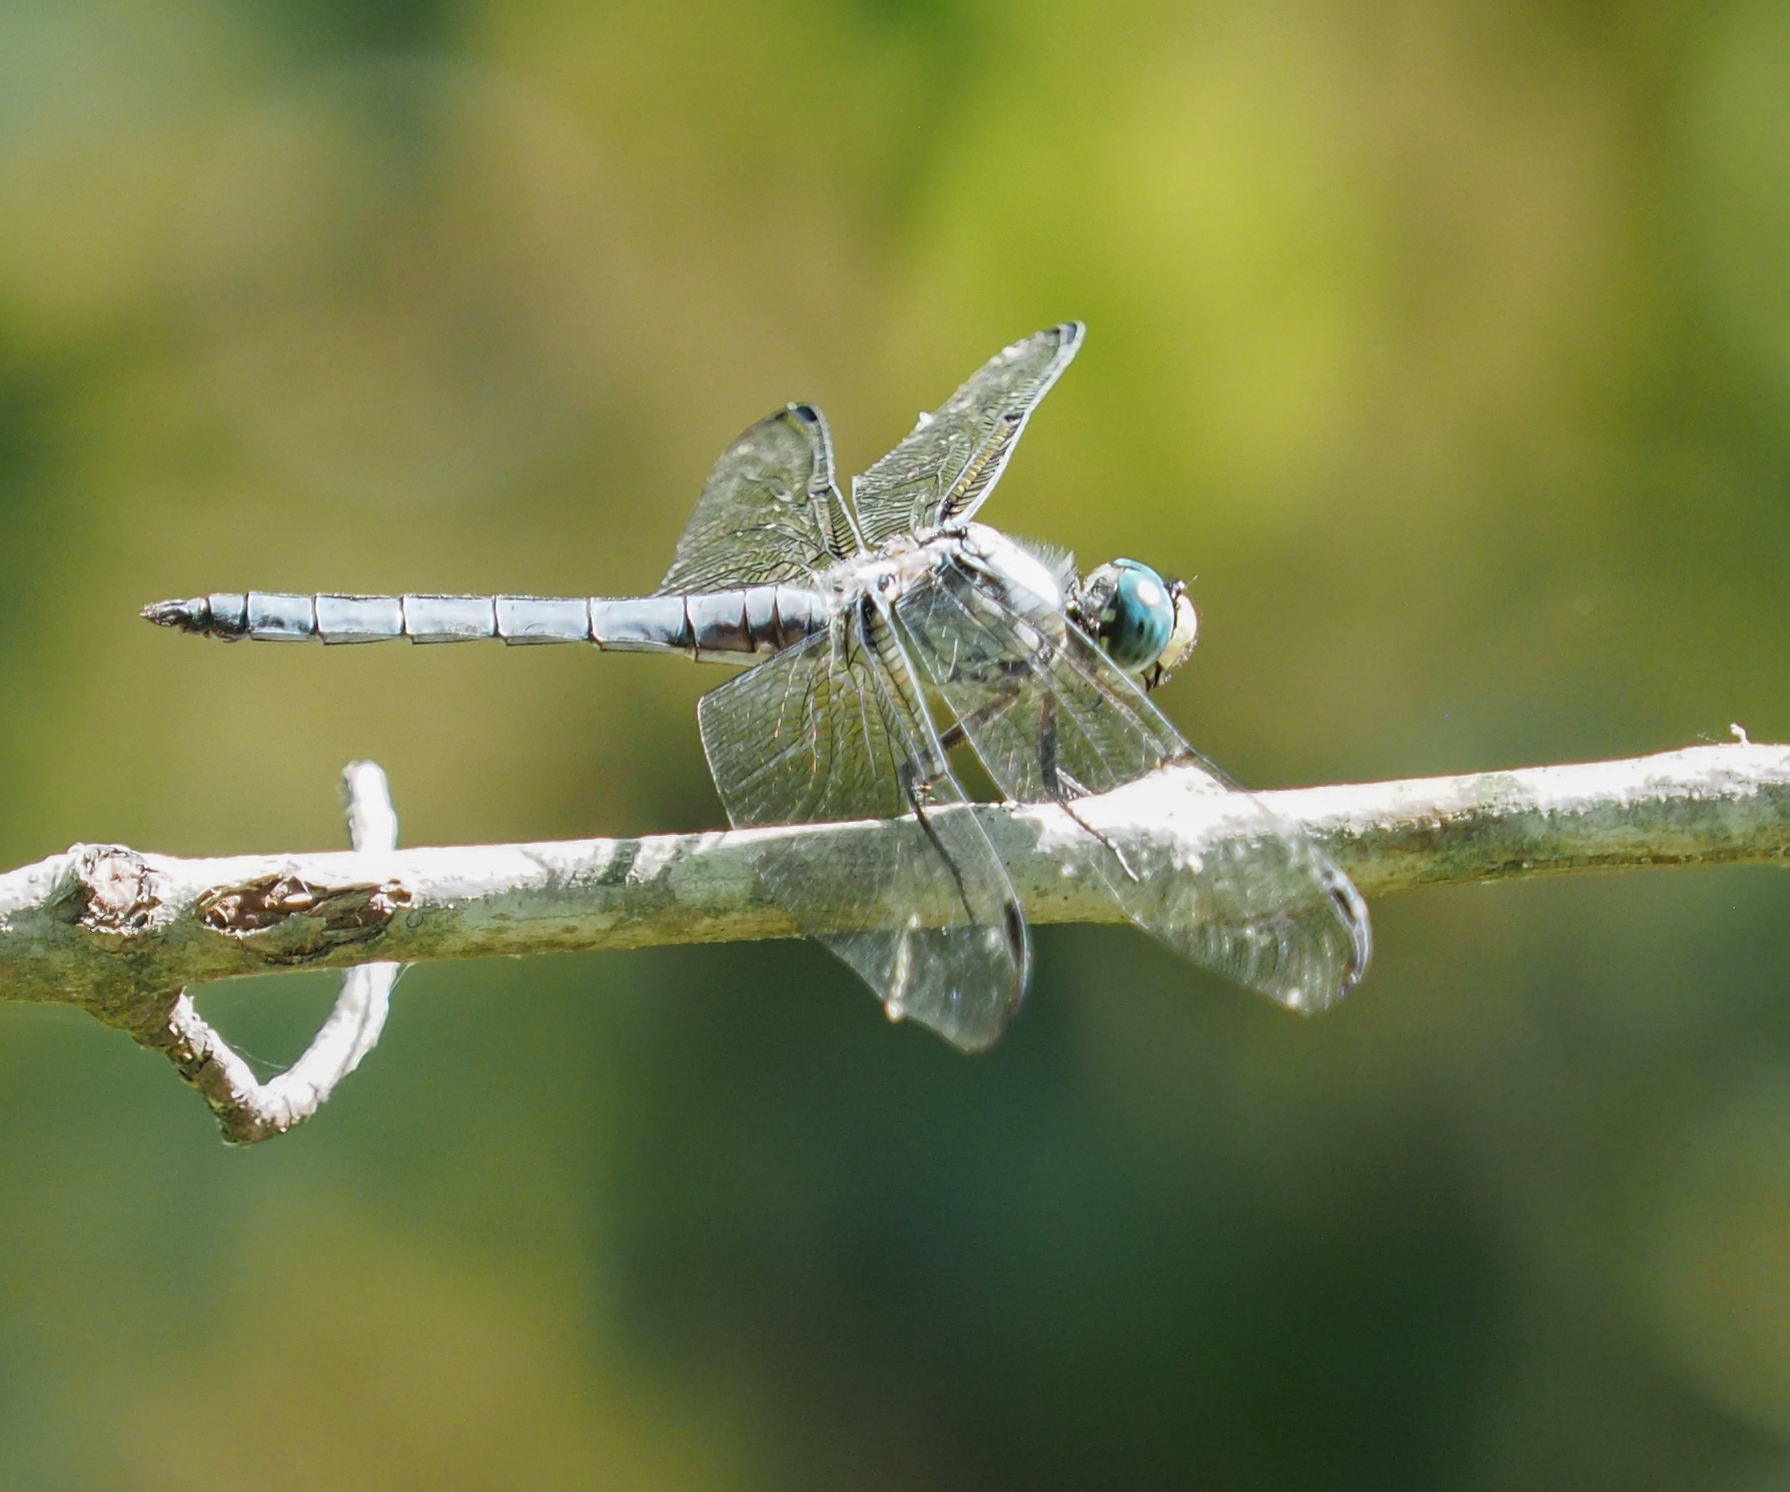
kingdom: Animalia
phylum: Arthropoda
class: Insecta
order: Odonata
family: Libellulidae
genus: Libellula
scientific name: Libellula vibrans
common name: Great blue skimmer
